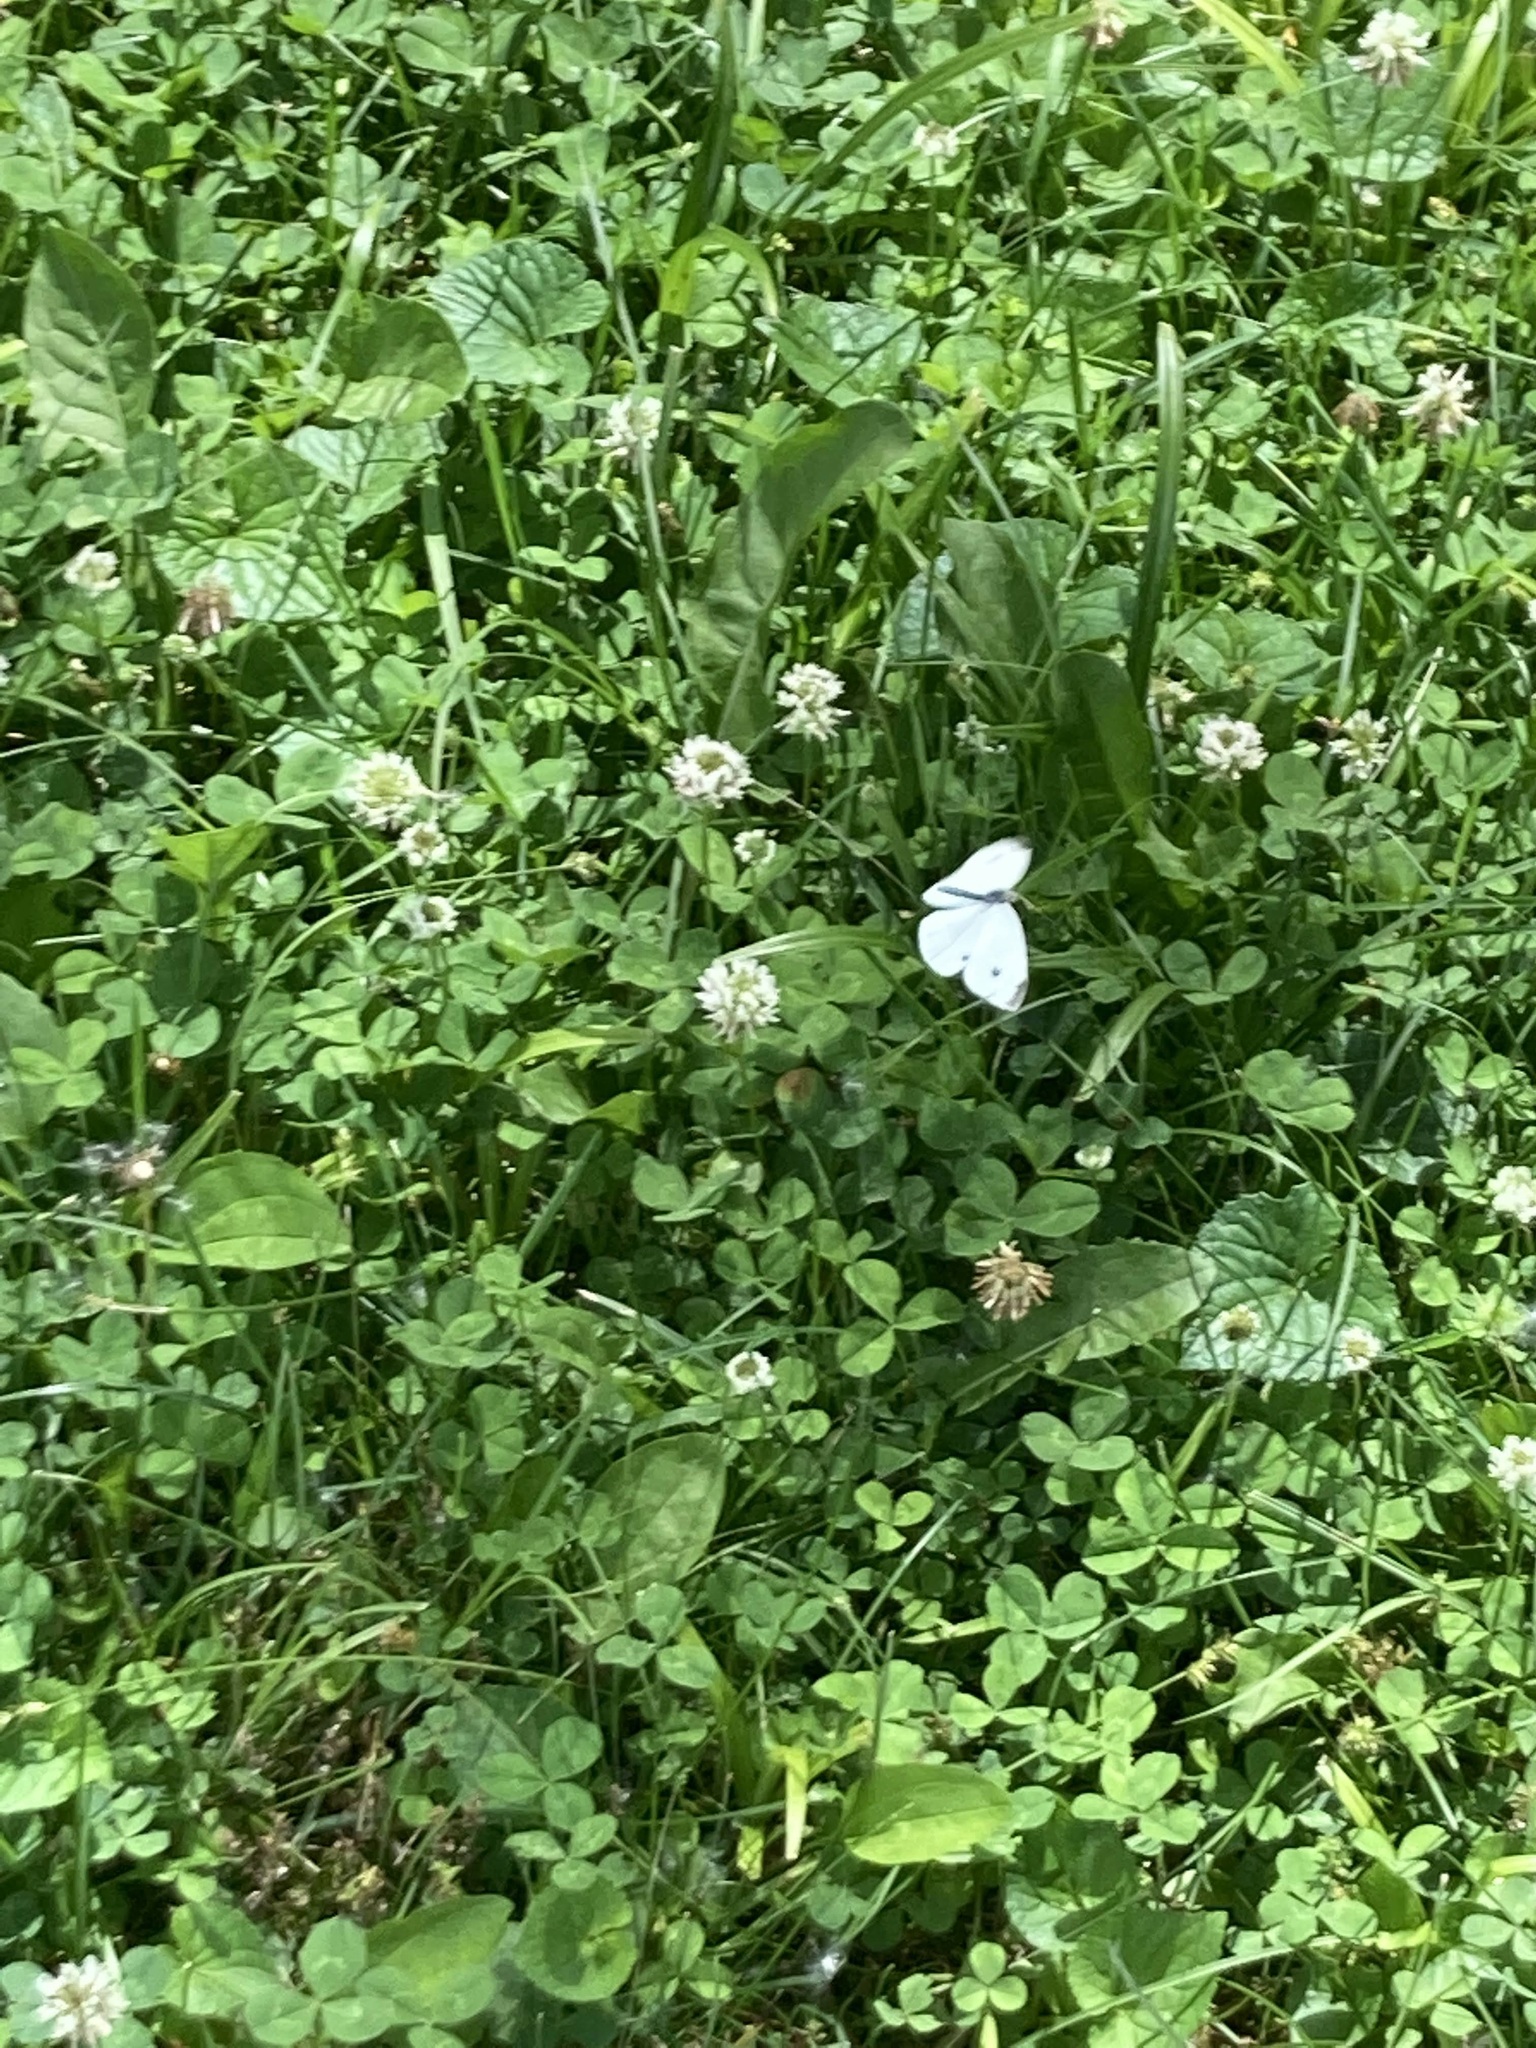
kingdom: Animalia
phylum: Arthropoda
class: Insecta
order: Lepidoptera
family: Pieridae
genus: Pieris
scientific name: Pieris rapae
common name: Small white
